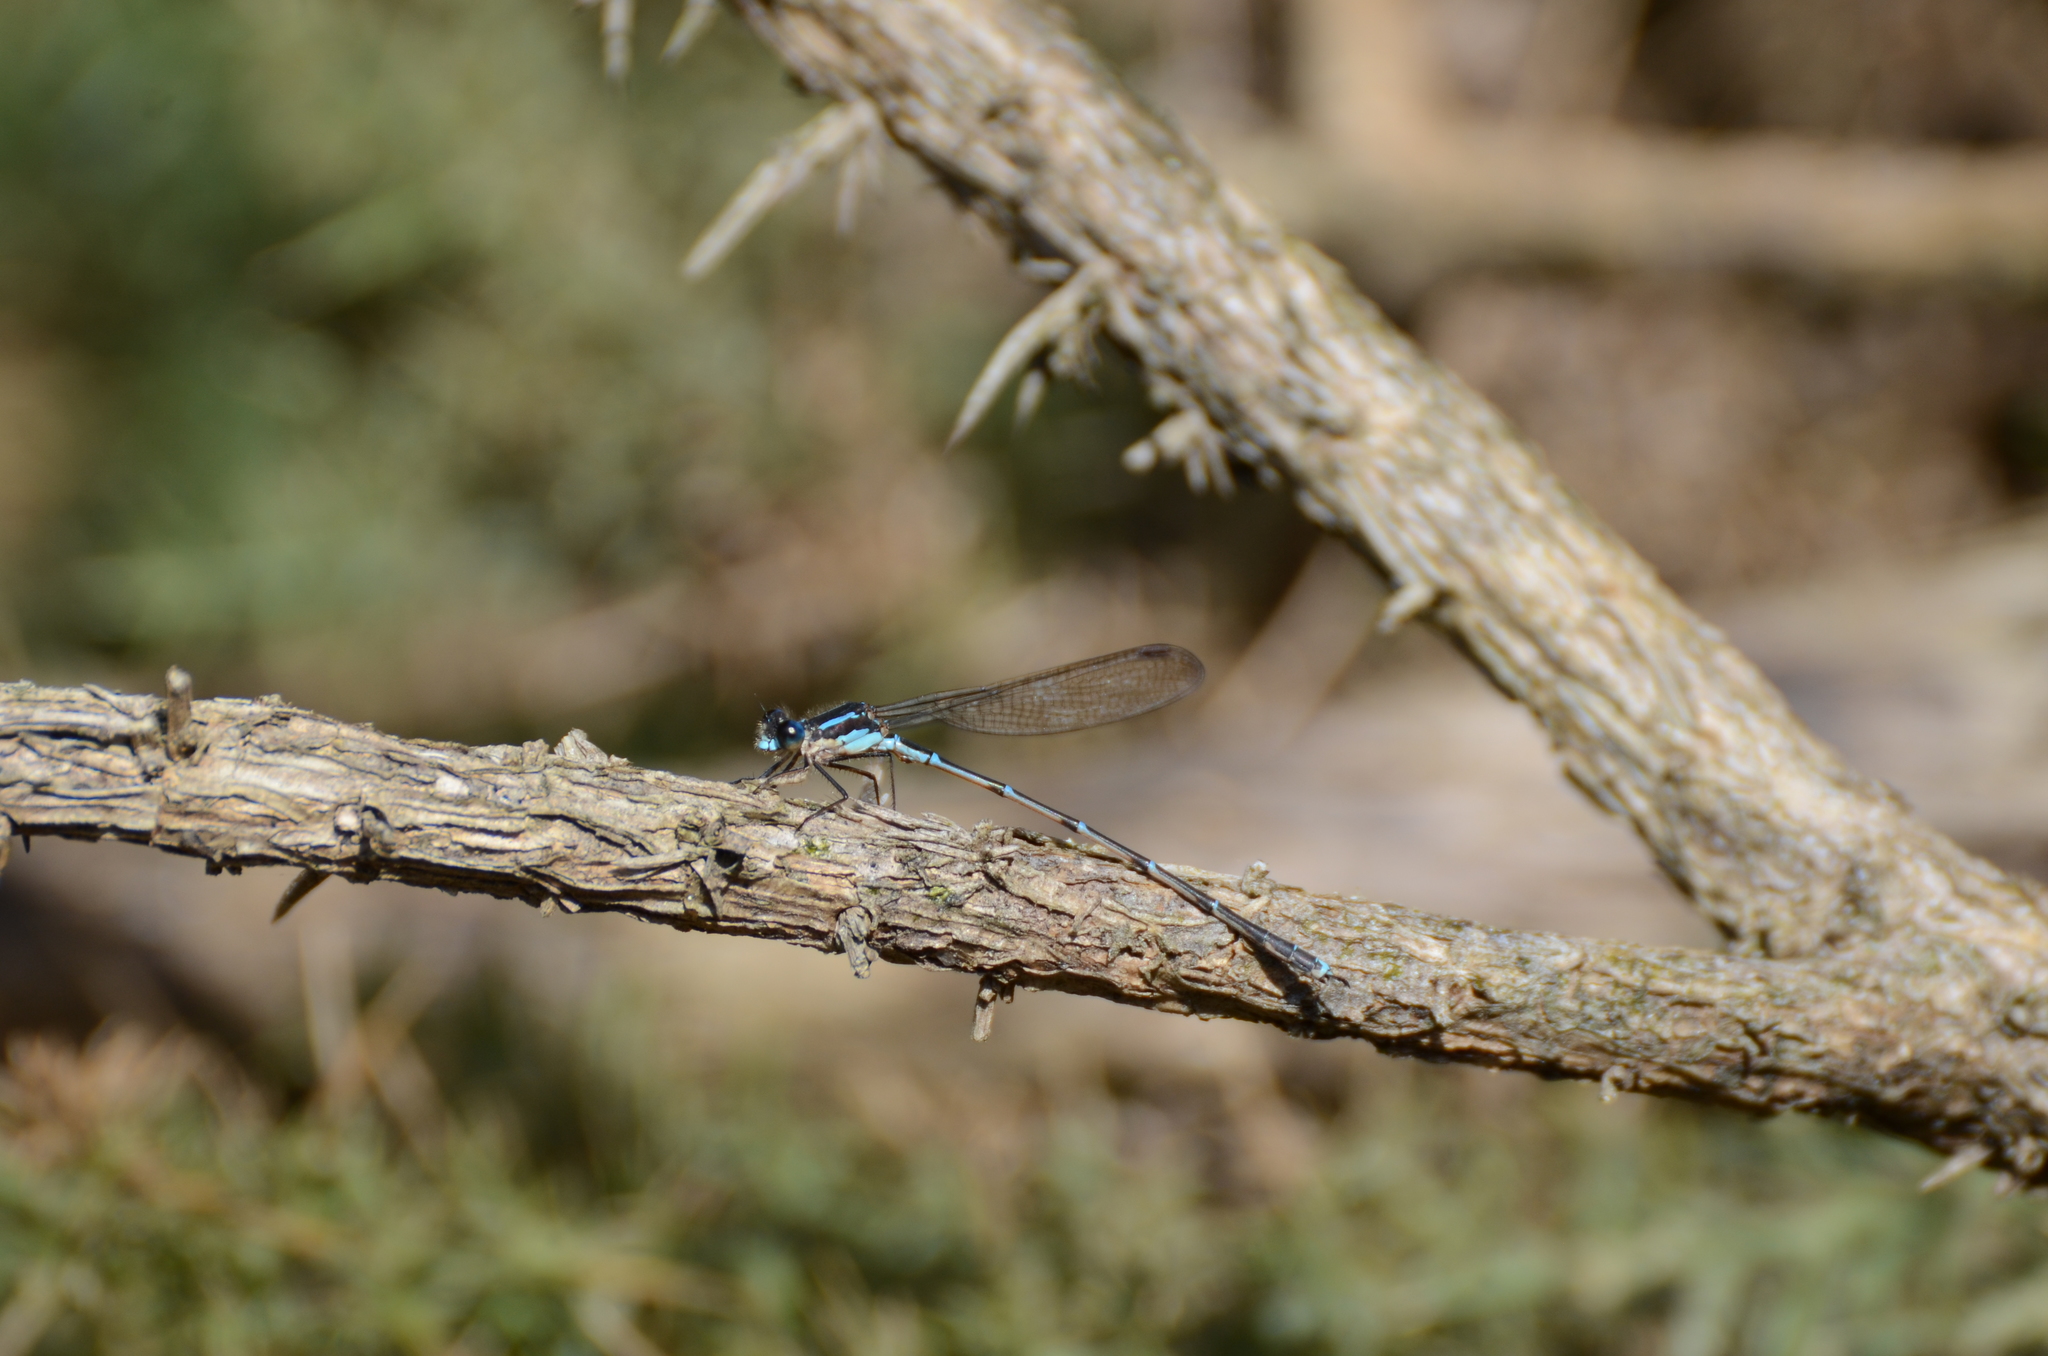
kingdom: Animalia
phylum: Arthropoda
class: Insecta
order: Odonata
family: Lestidae
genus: Austrolestes
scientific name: Austrolestes colensonis
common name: Blue damselfly
